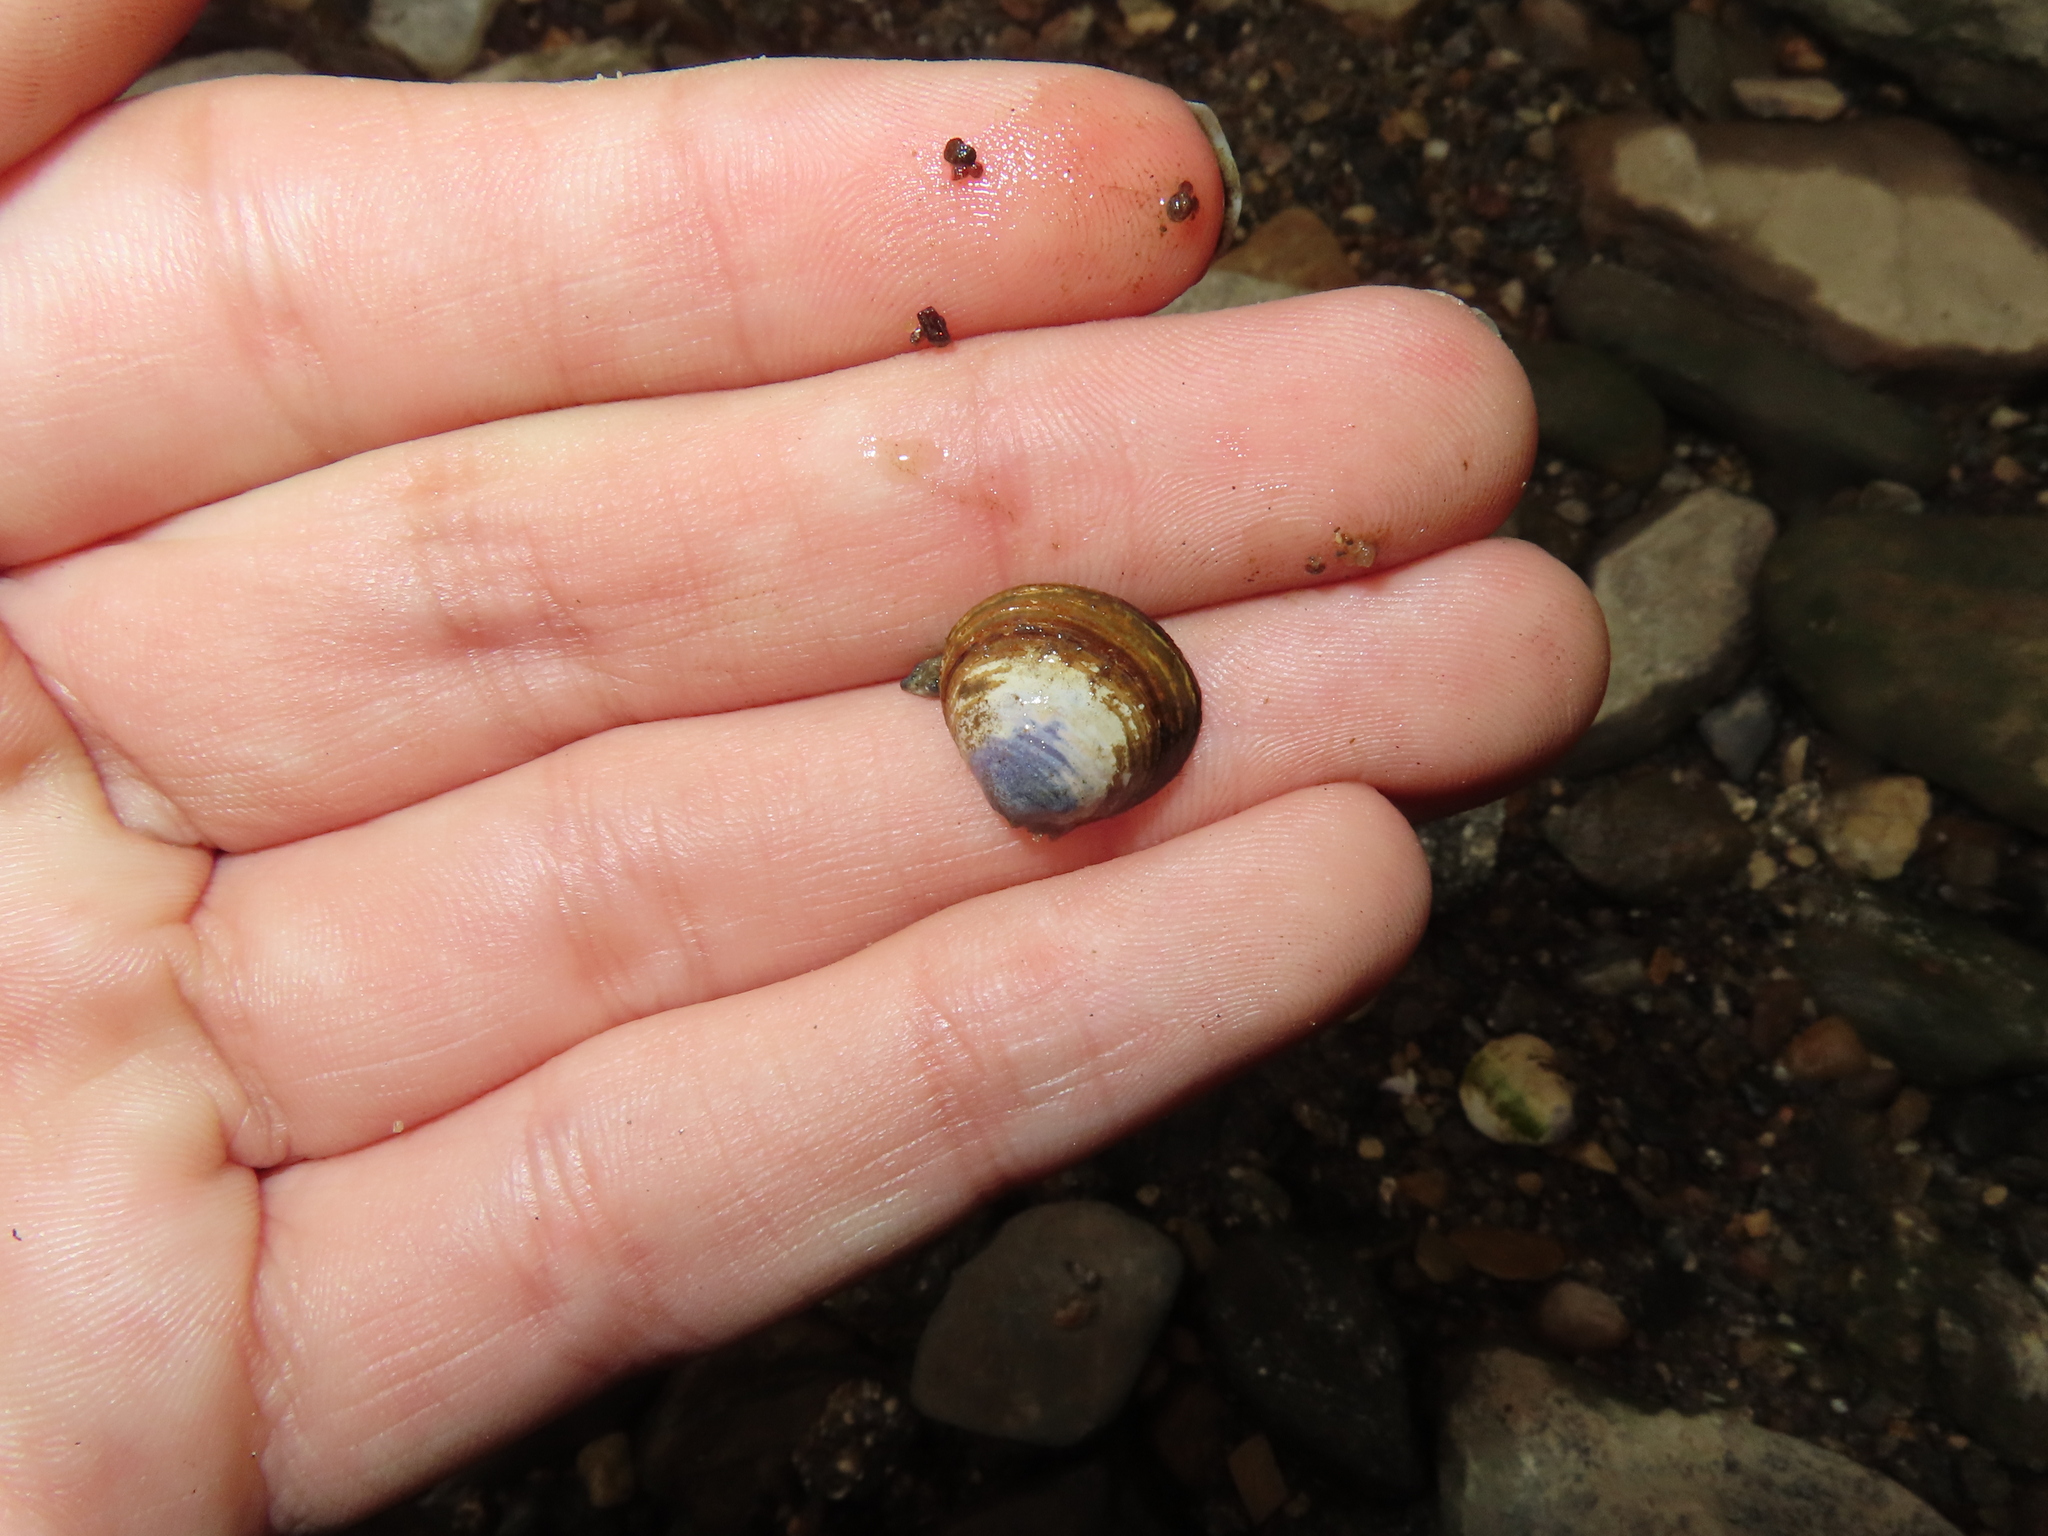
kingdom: Animalia
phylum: Mollusca
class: Bivalvia
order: Venerida
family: Cyrenidae
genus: Corbicula
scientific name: Corbicula fluminea
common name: Asian clam
